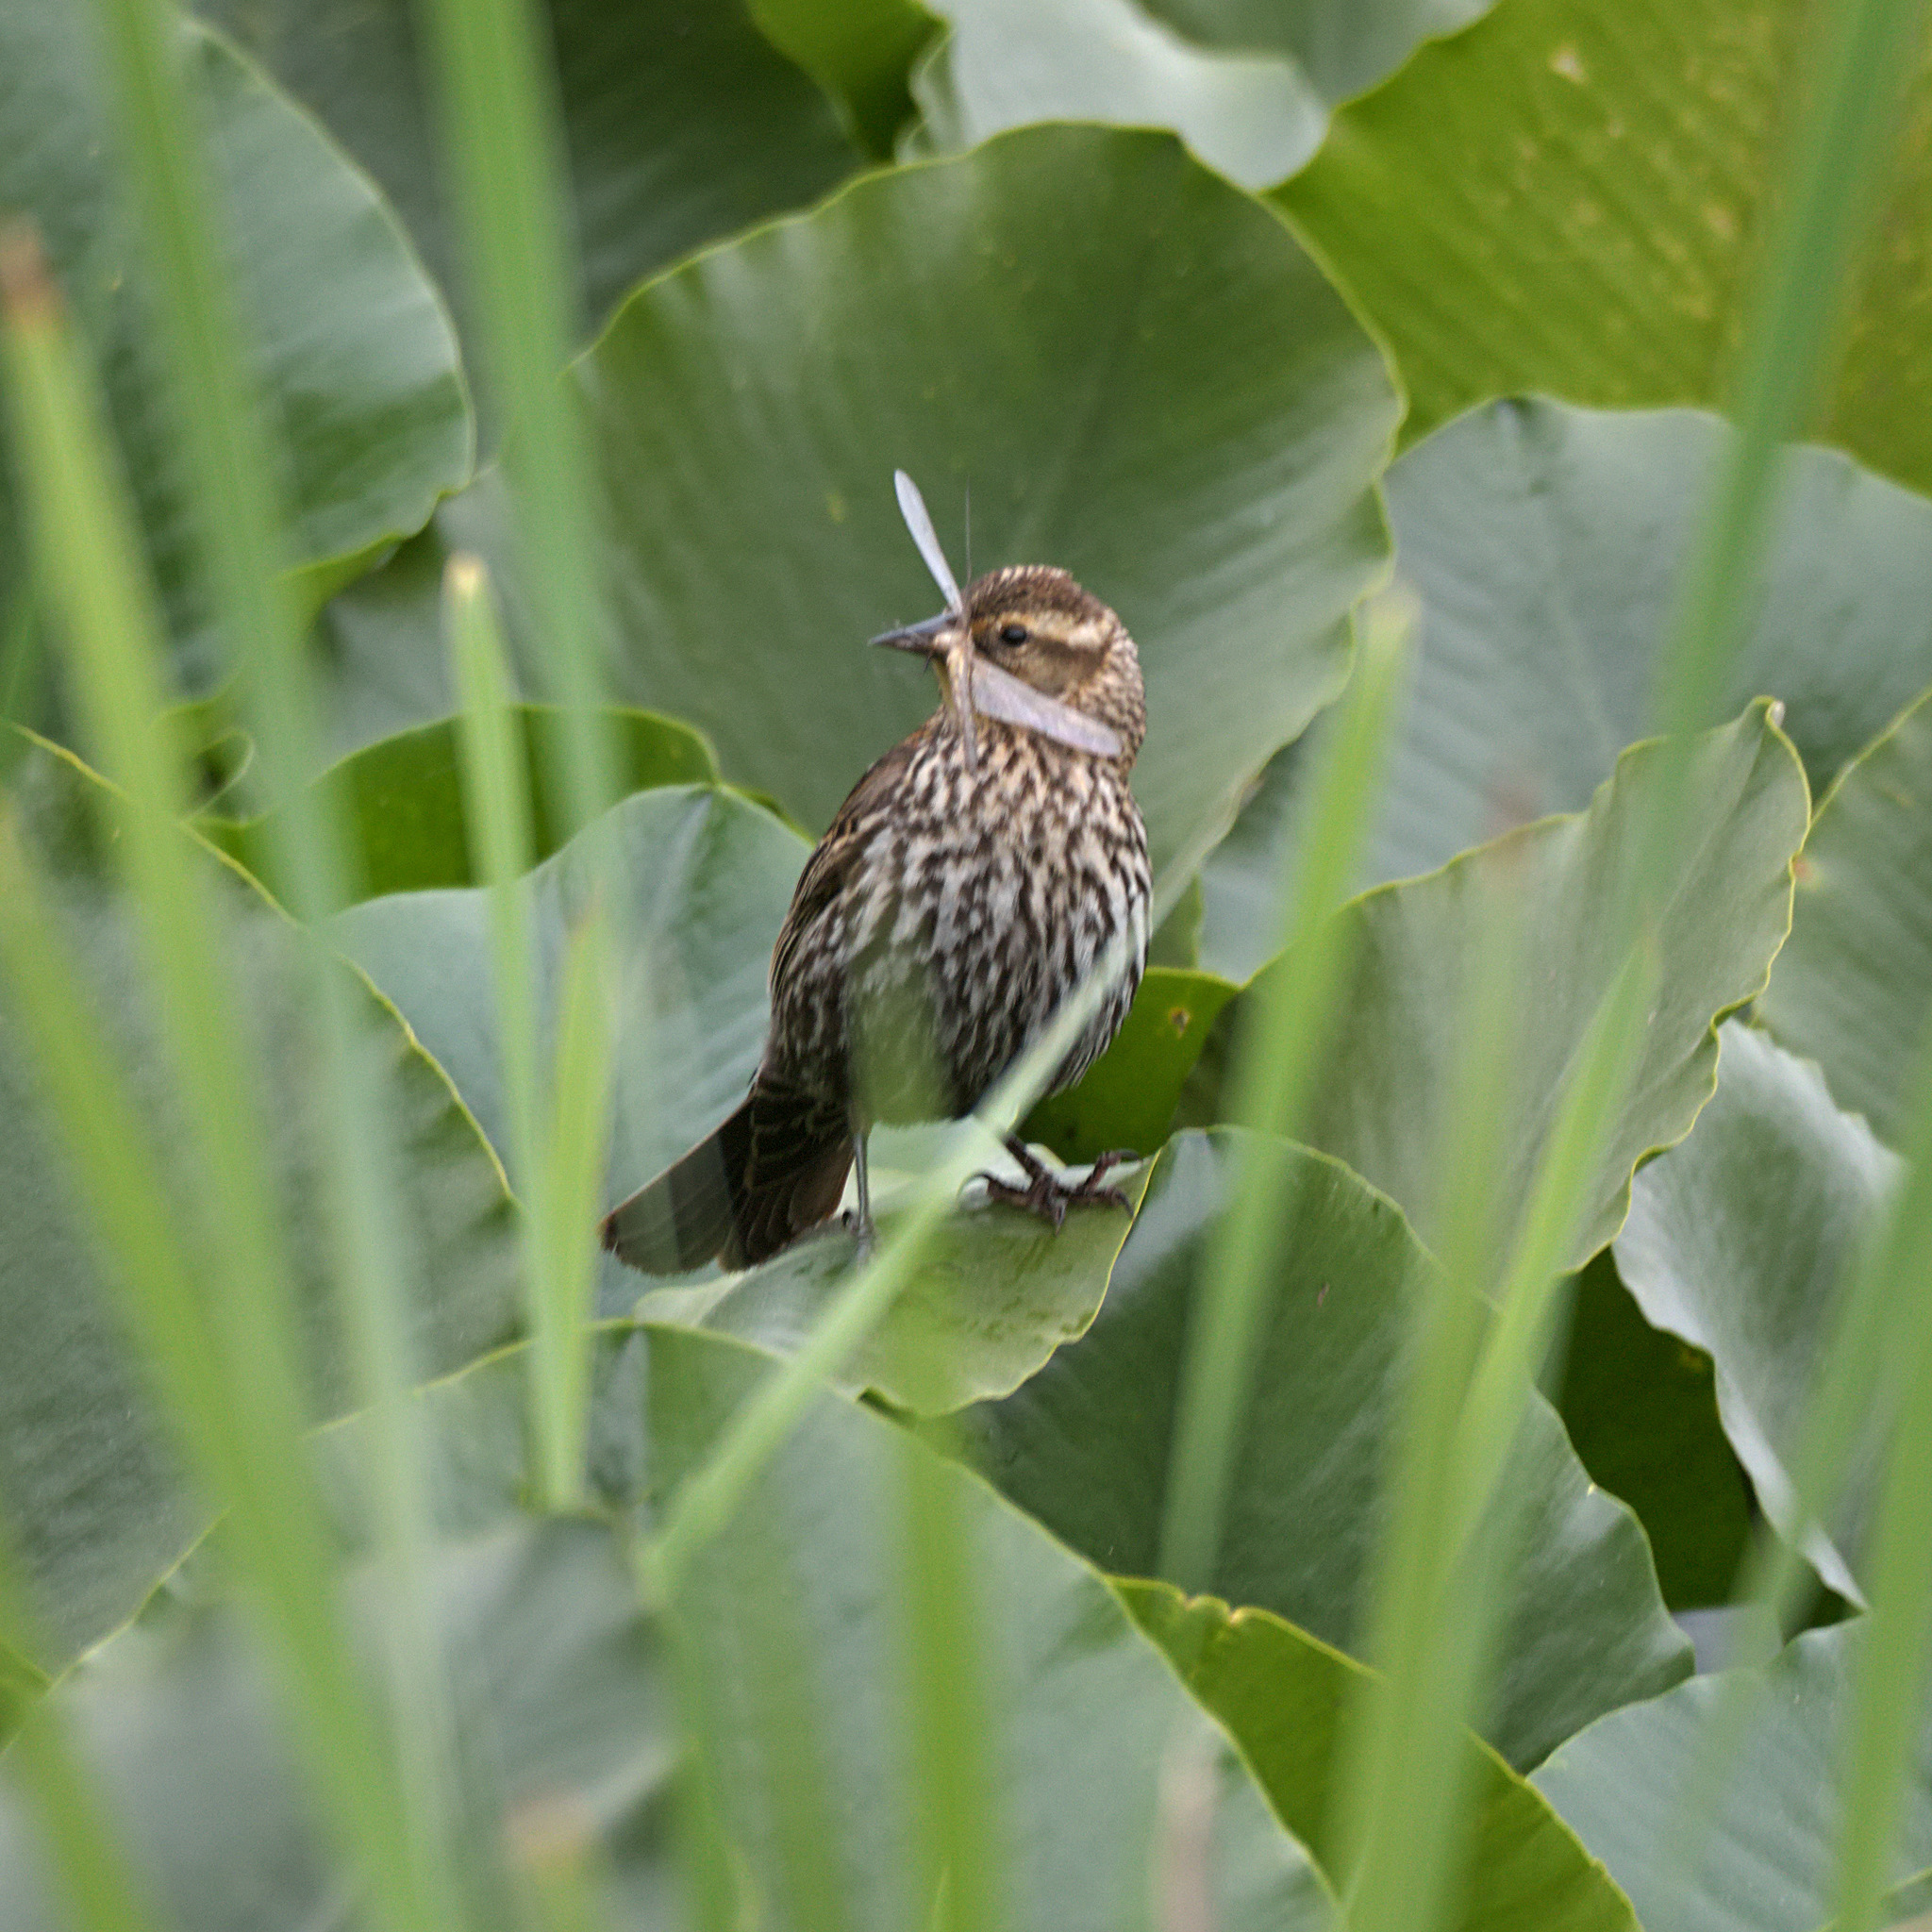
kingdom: Animalia
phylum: Chordata
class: Aves
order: Passeriformes
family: Icteridae
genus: Agelaius
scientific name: Agelaius phoeniceus
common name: Red-winged blackbird
